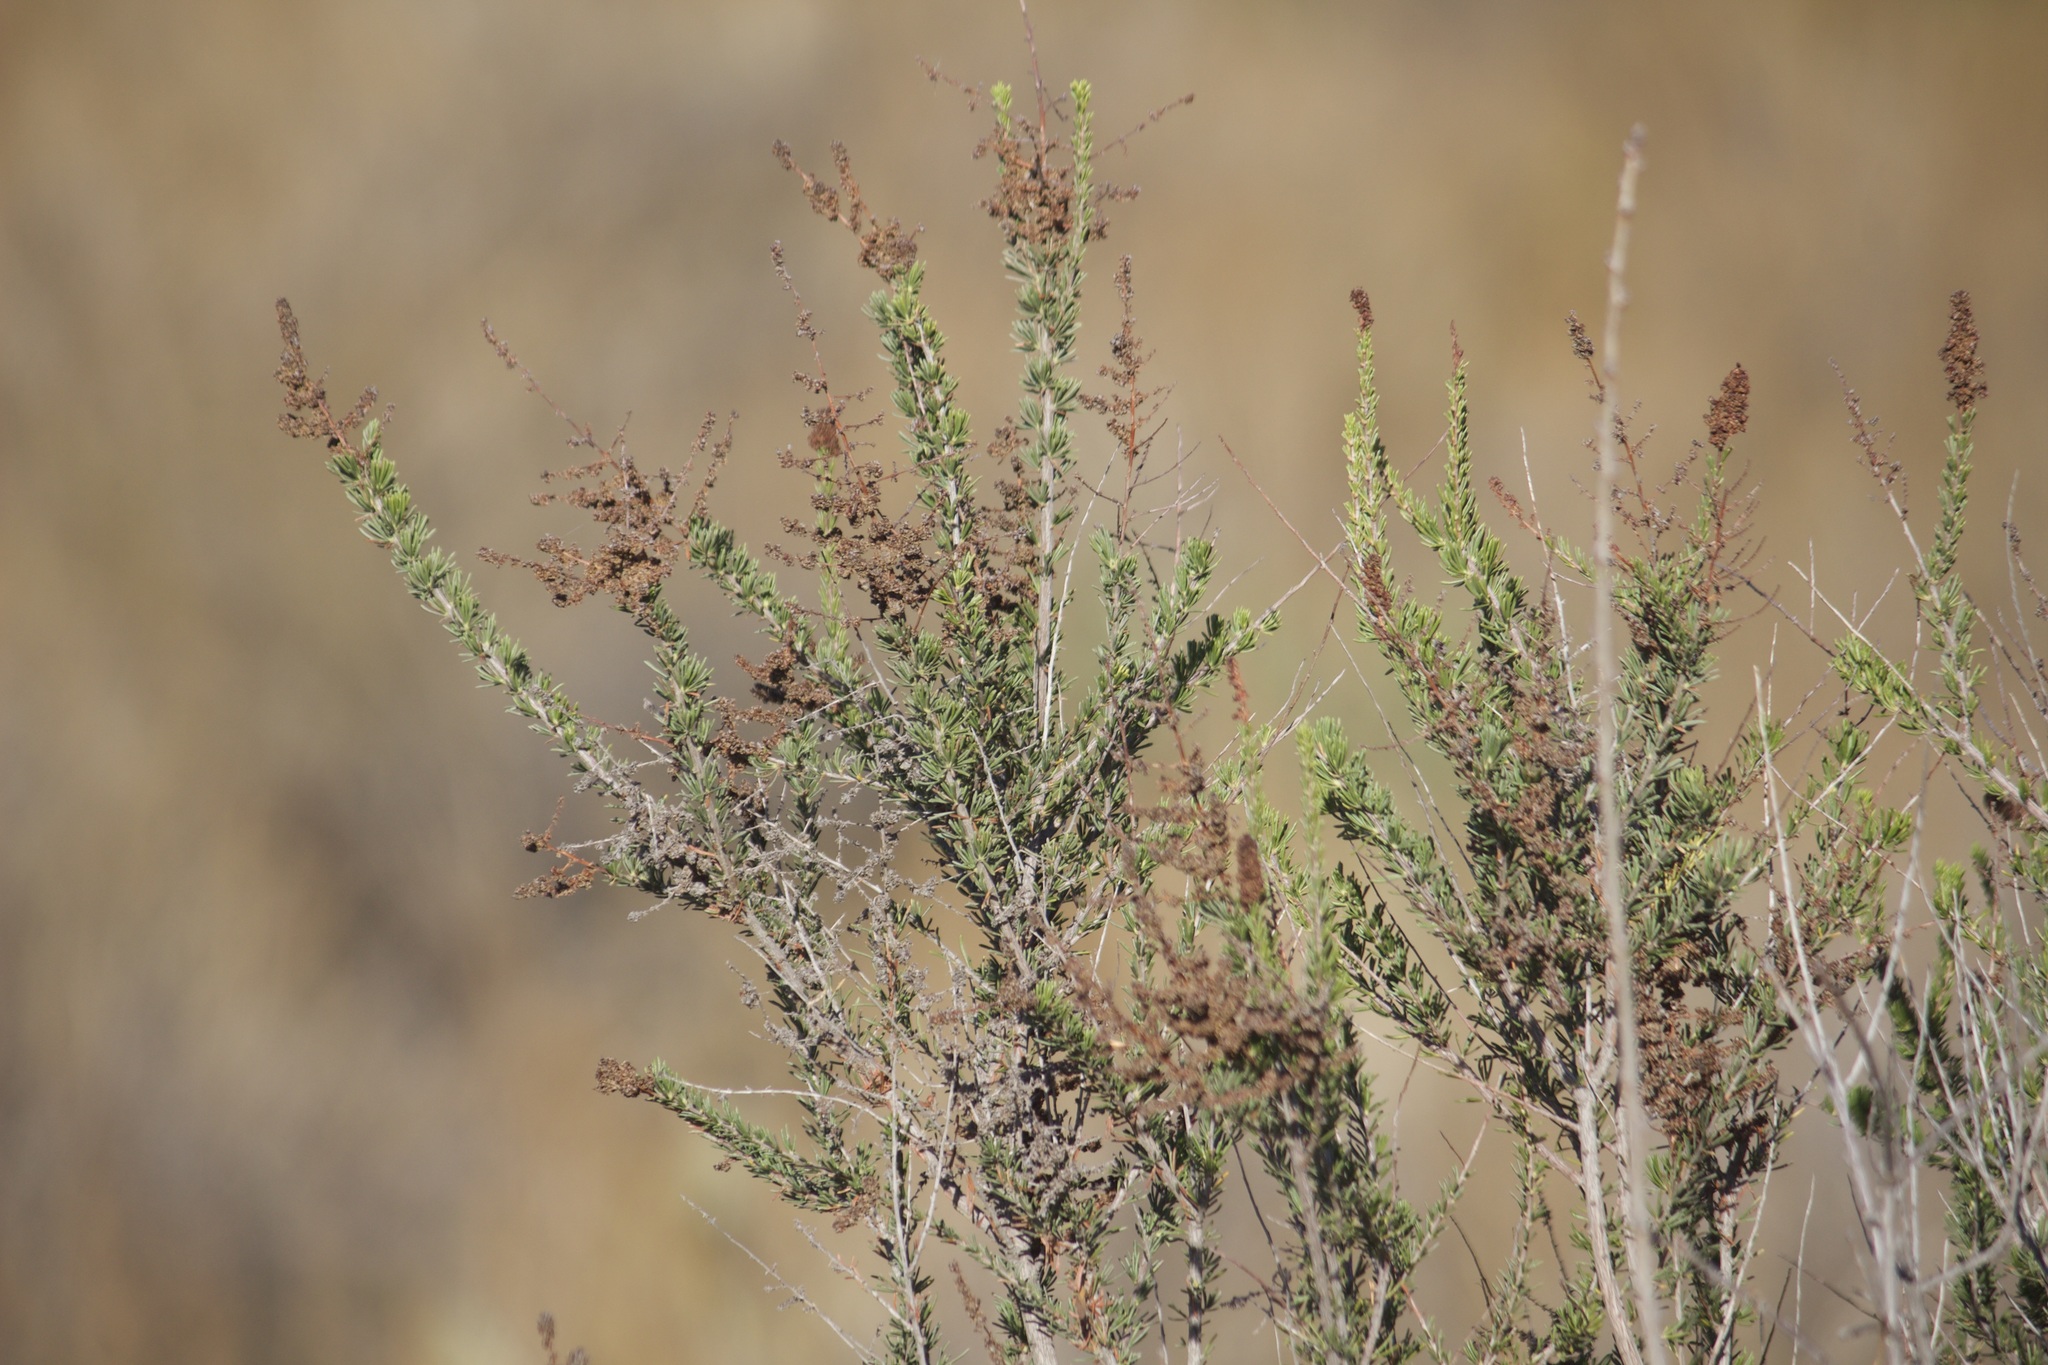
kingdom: Plantae
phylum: Tracheophyta
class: Magnoliopsida
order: Rosales
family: Rosaceae
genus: Adenostoma
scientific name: Adenostoma fasciculatum
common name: Chamise
